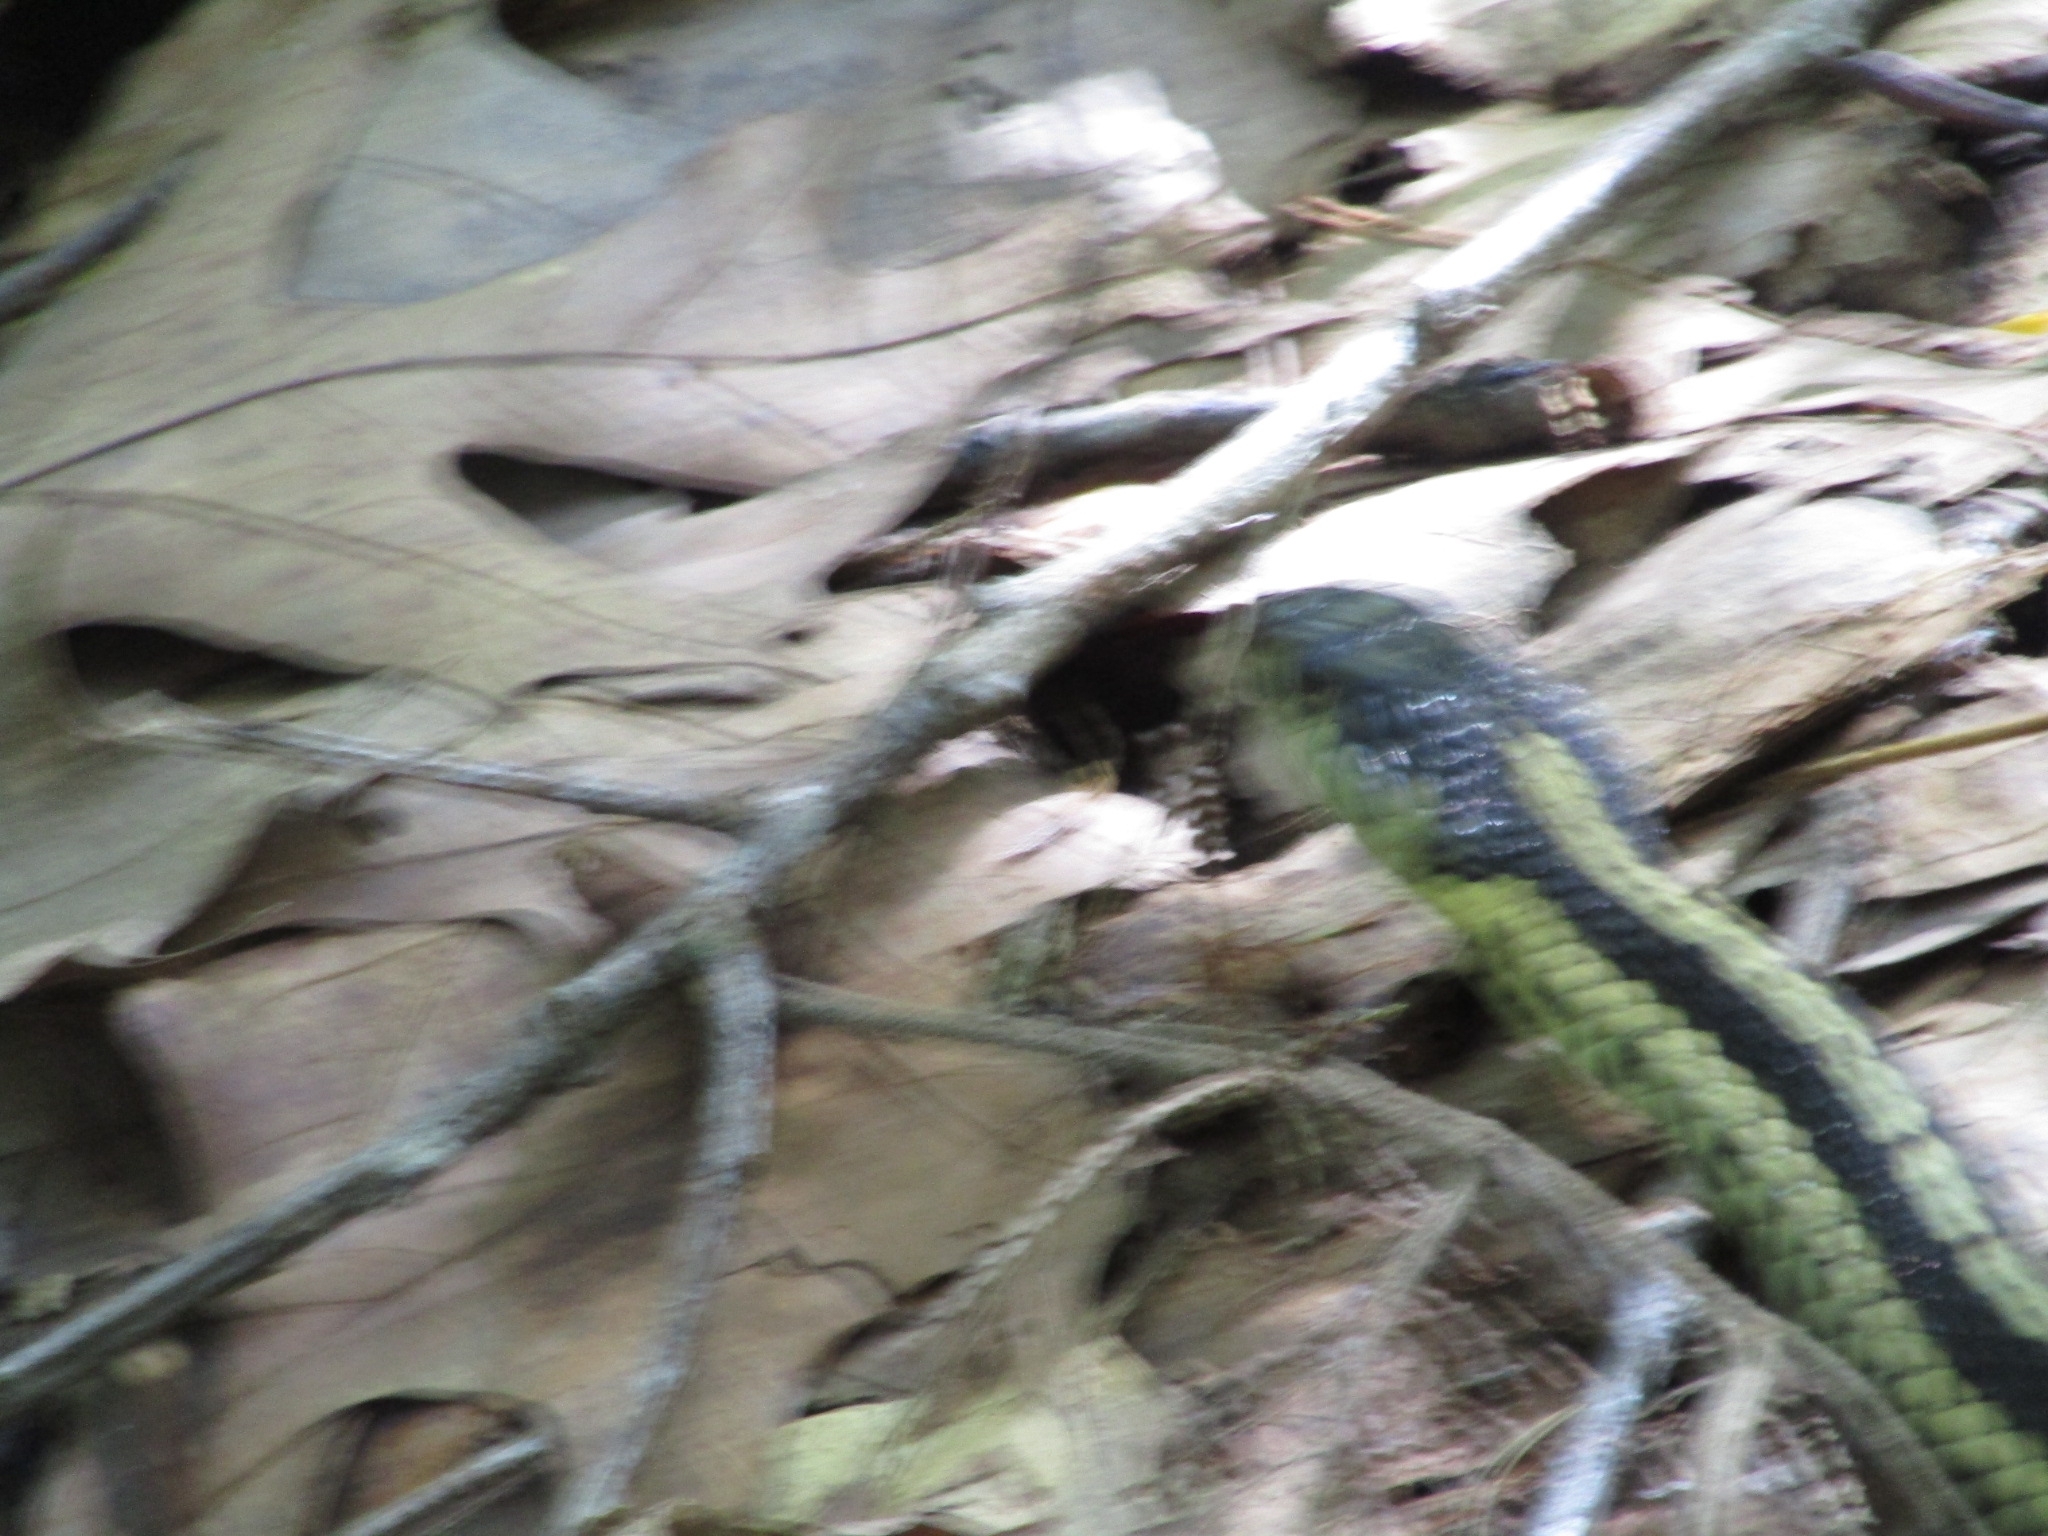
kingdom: Animalia
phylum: Chordata
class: Squamata
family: Colubridae
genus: Thamnophis
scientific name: Thamnophis sirtalis
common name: Common garter snake
